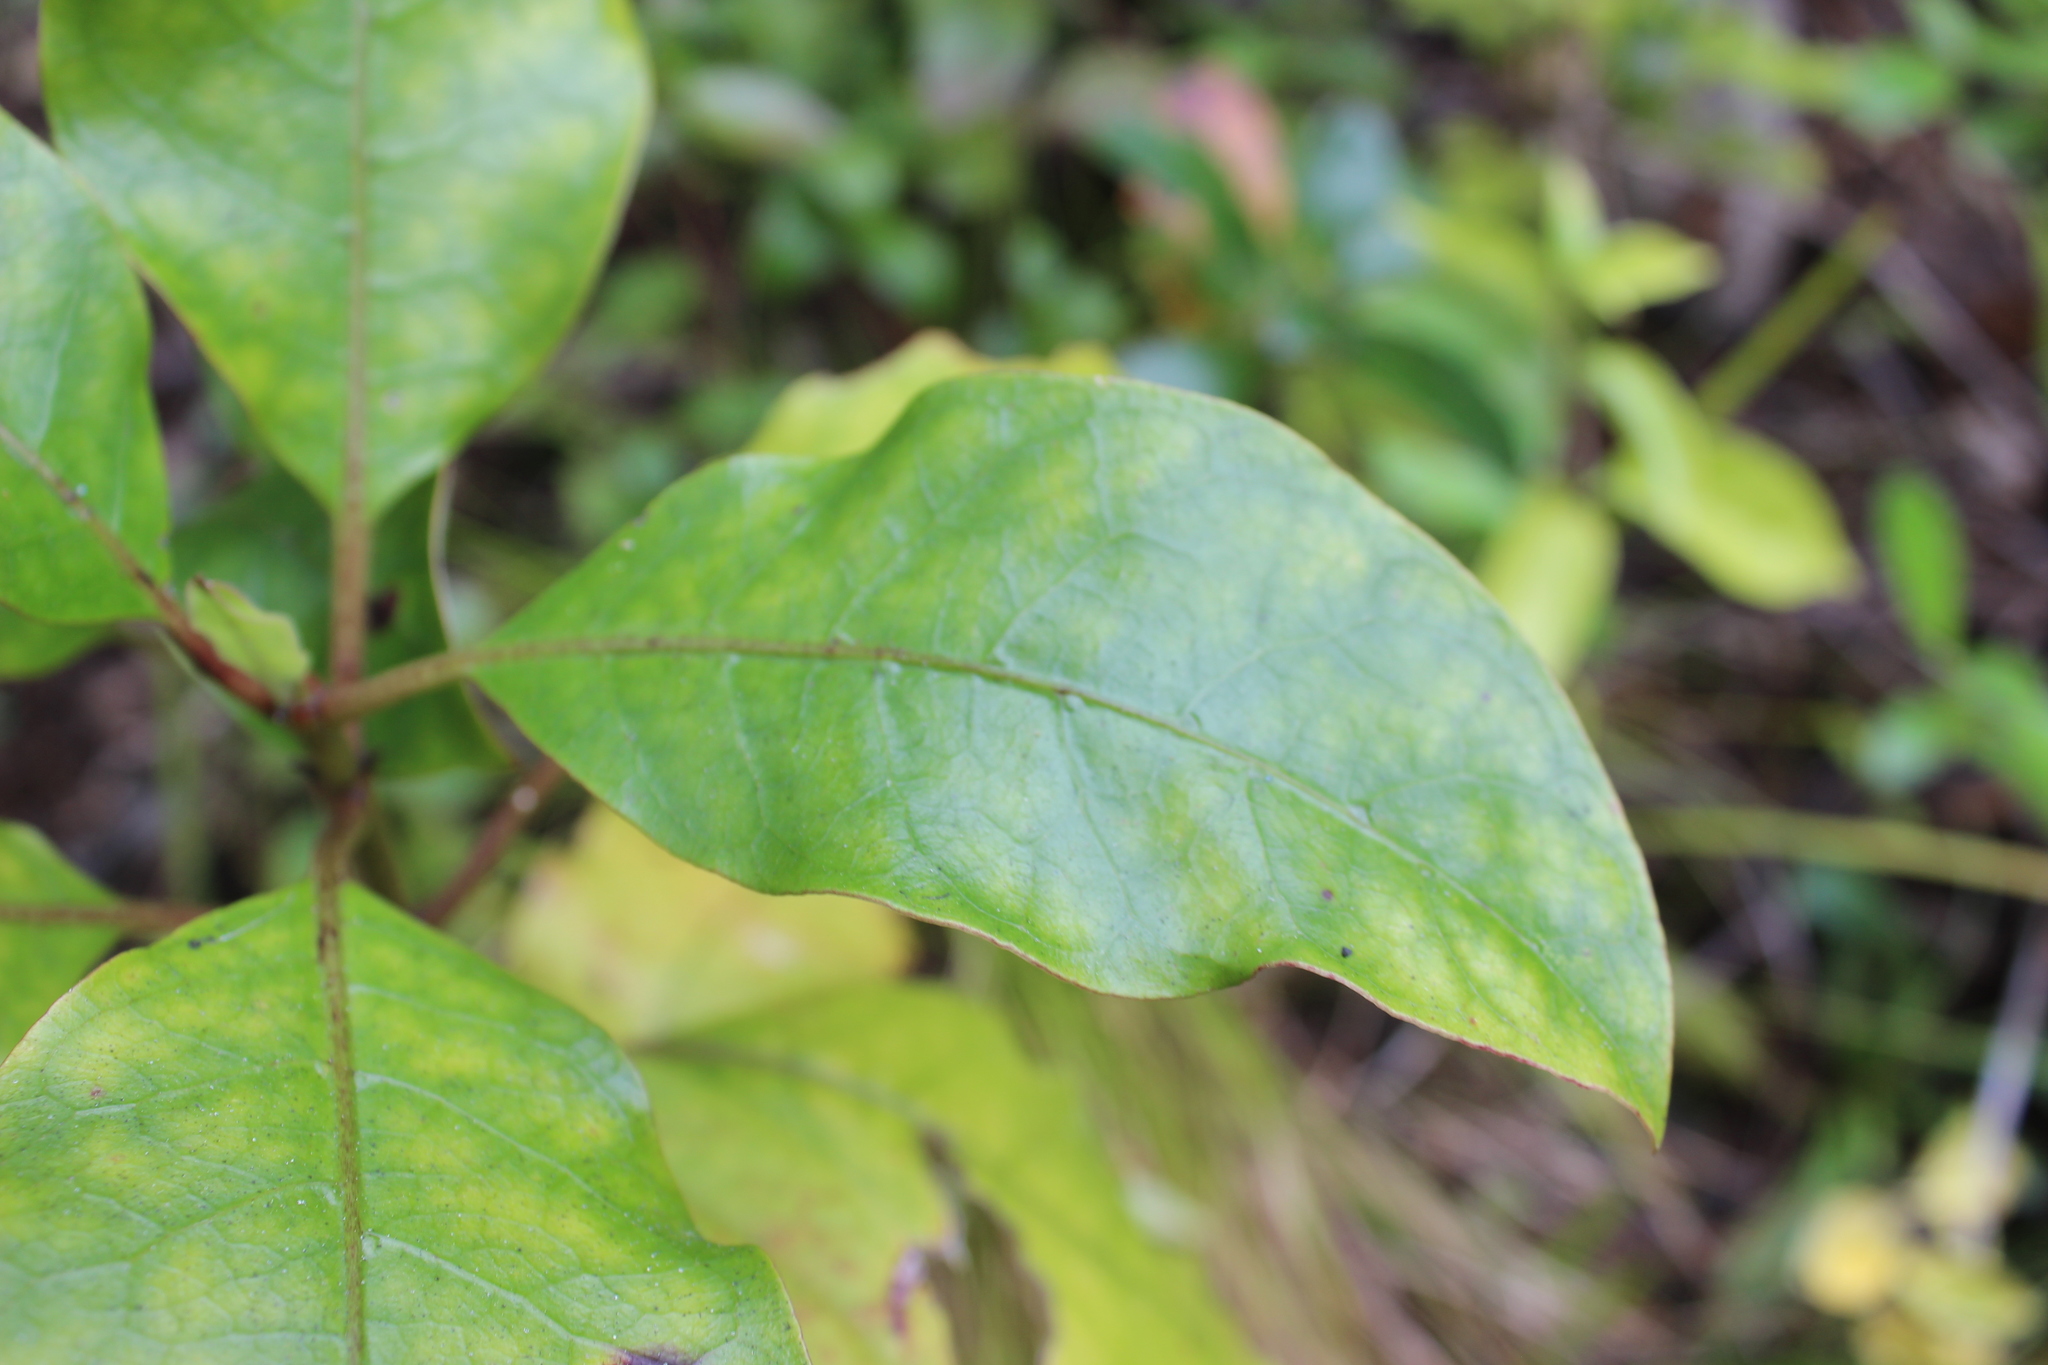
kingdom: Plantae
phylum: Tracheophyta
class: Magnoliopsida
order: Gentianales
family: Rubiaceae
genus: Coprosma
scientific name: Coprosma autumnalis
